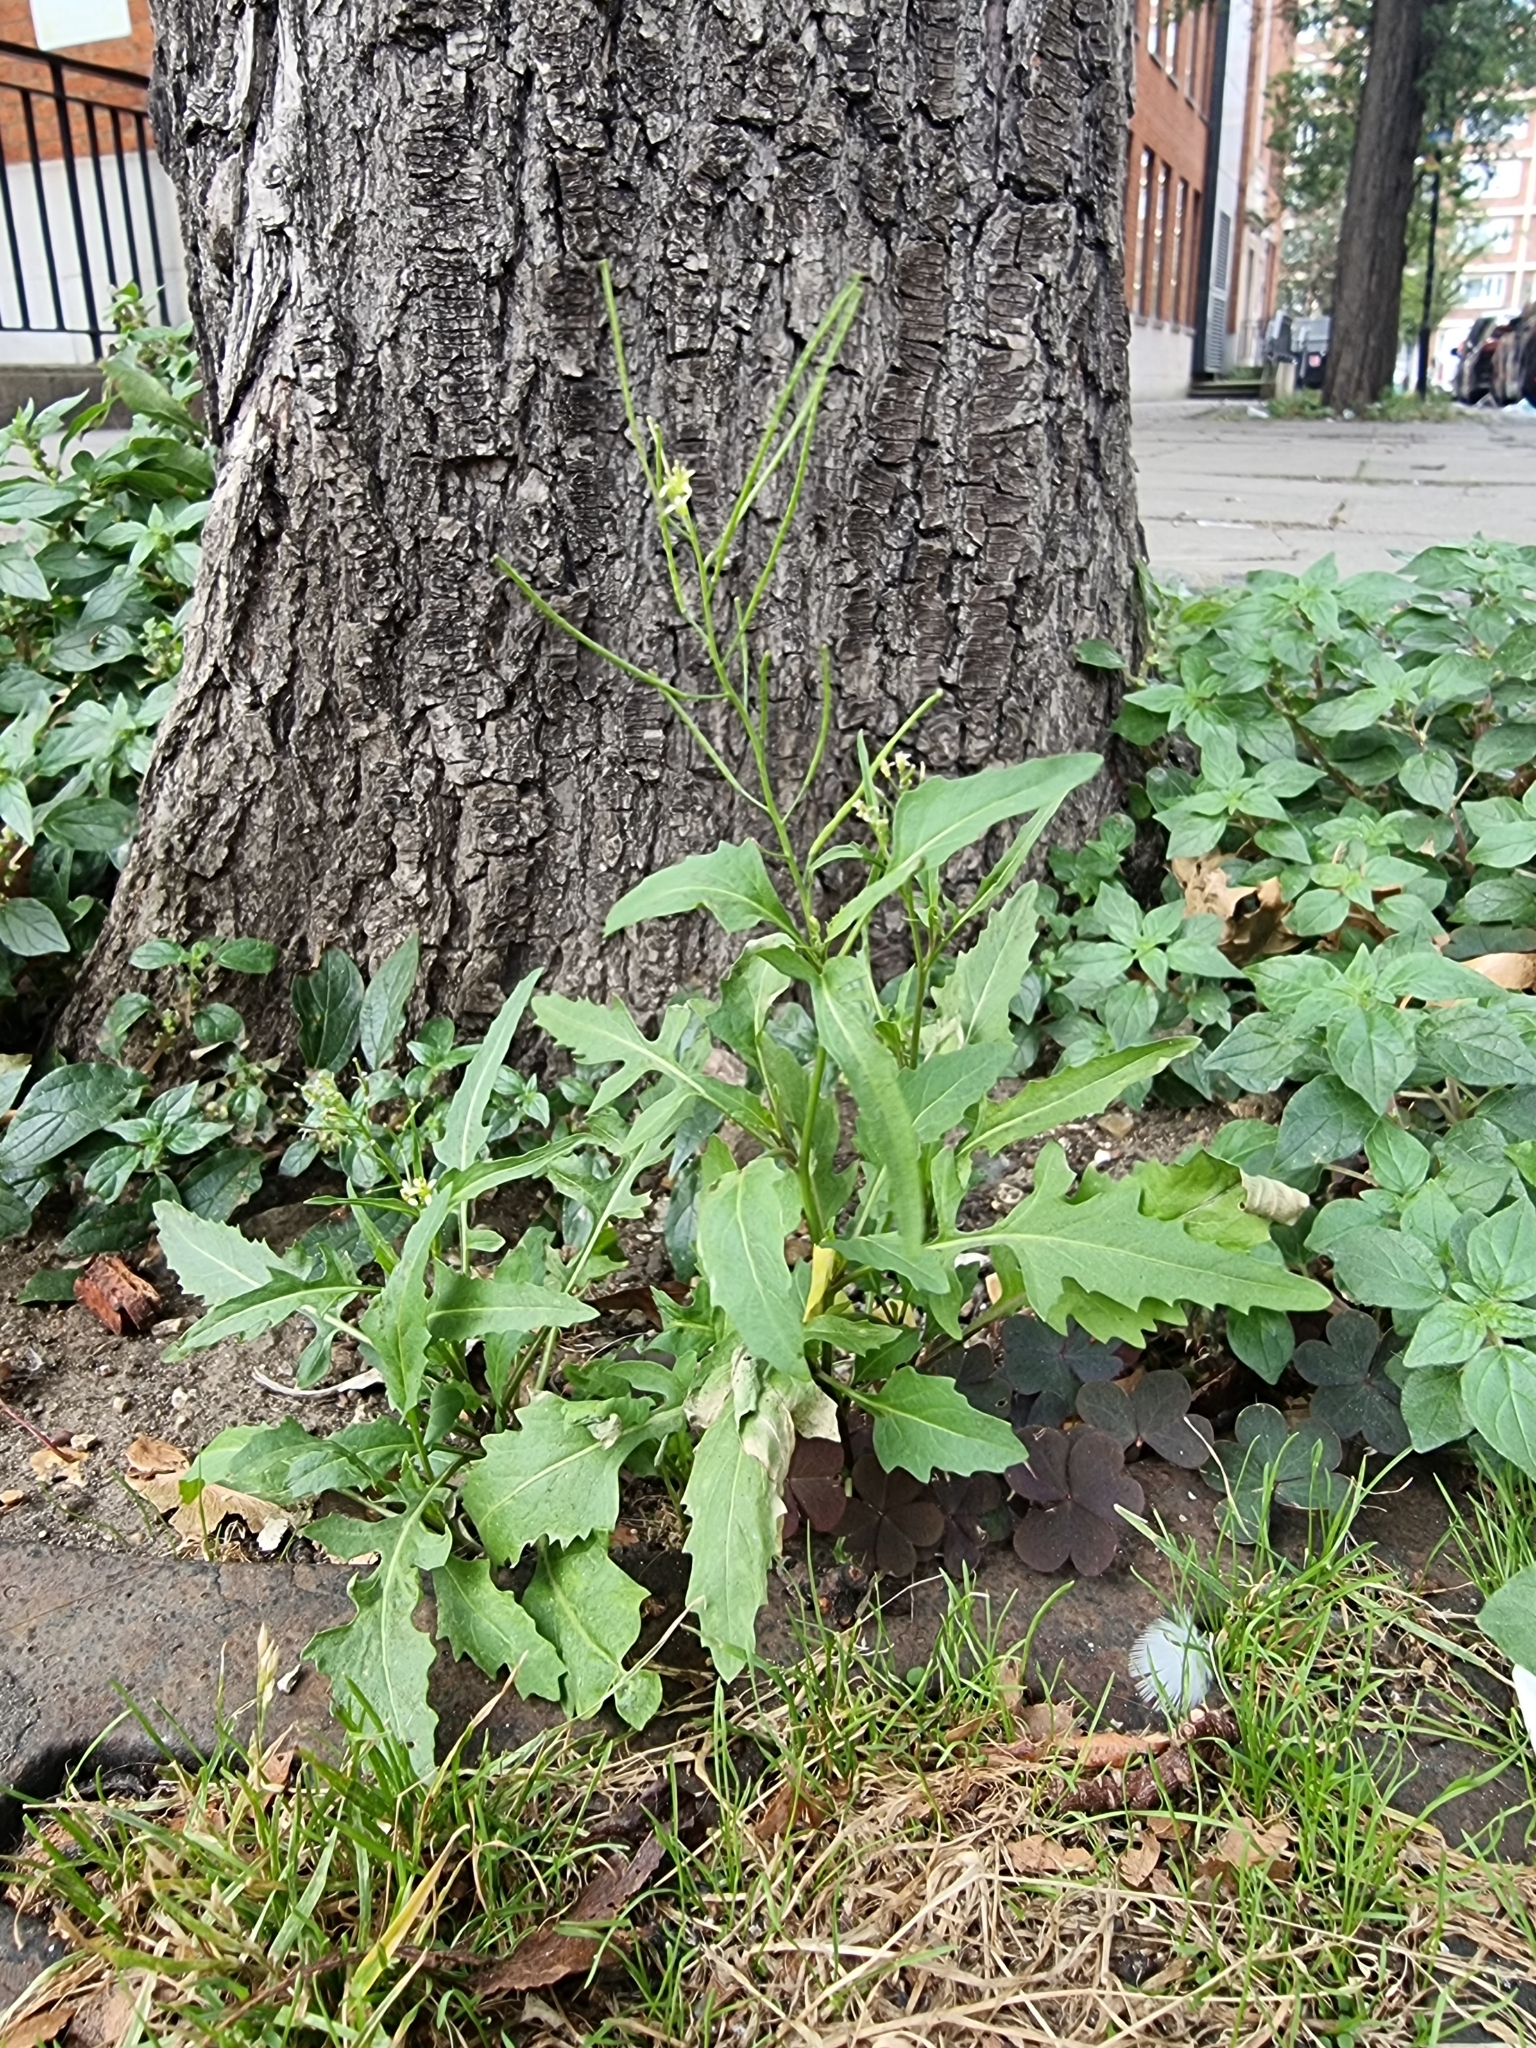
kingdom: Plantae
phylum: Tracheophyta
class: Magnoliopsida
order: Brassicales
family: Brassicaceae
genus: Sisymbrium
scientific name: Sisymbrium irio
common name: London rocket
